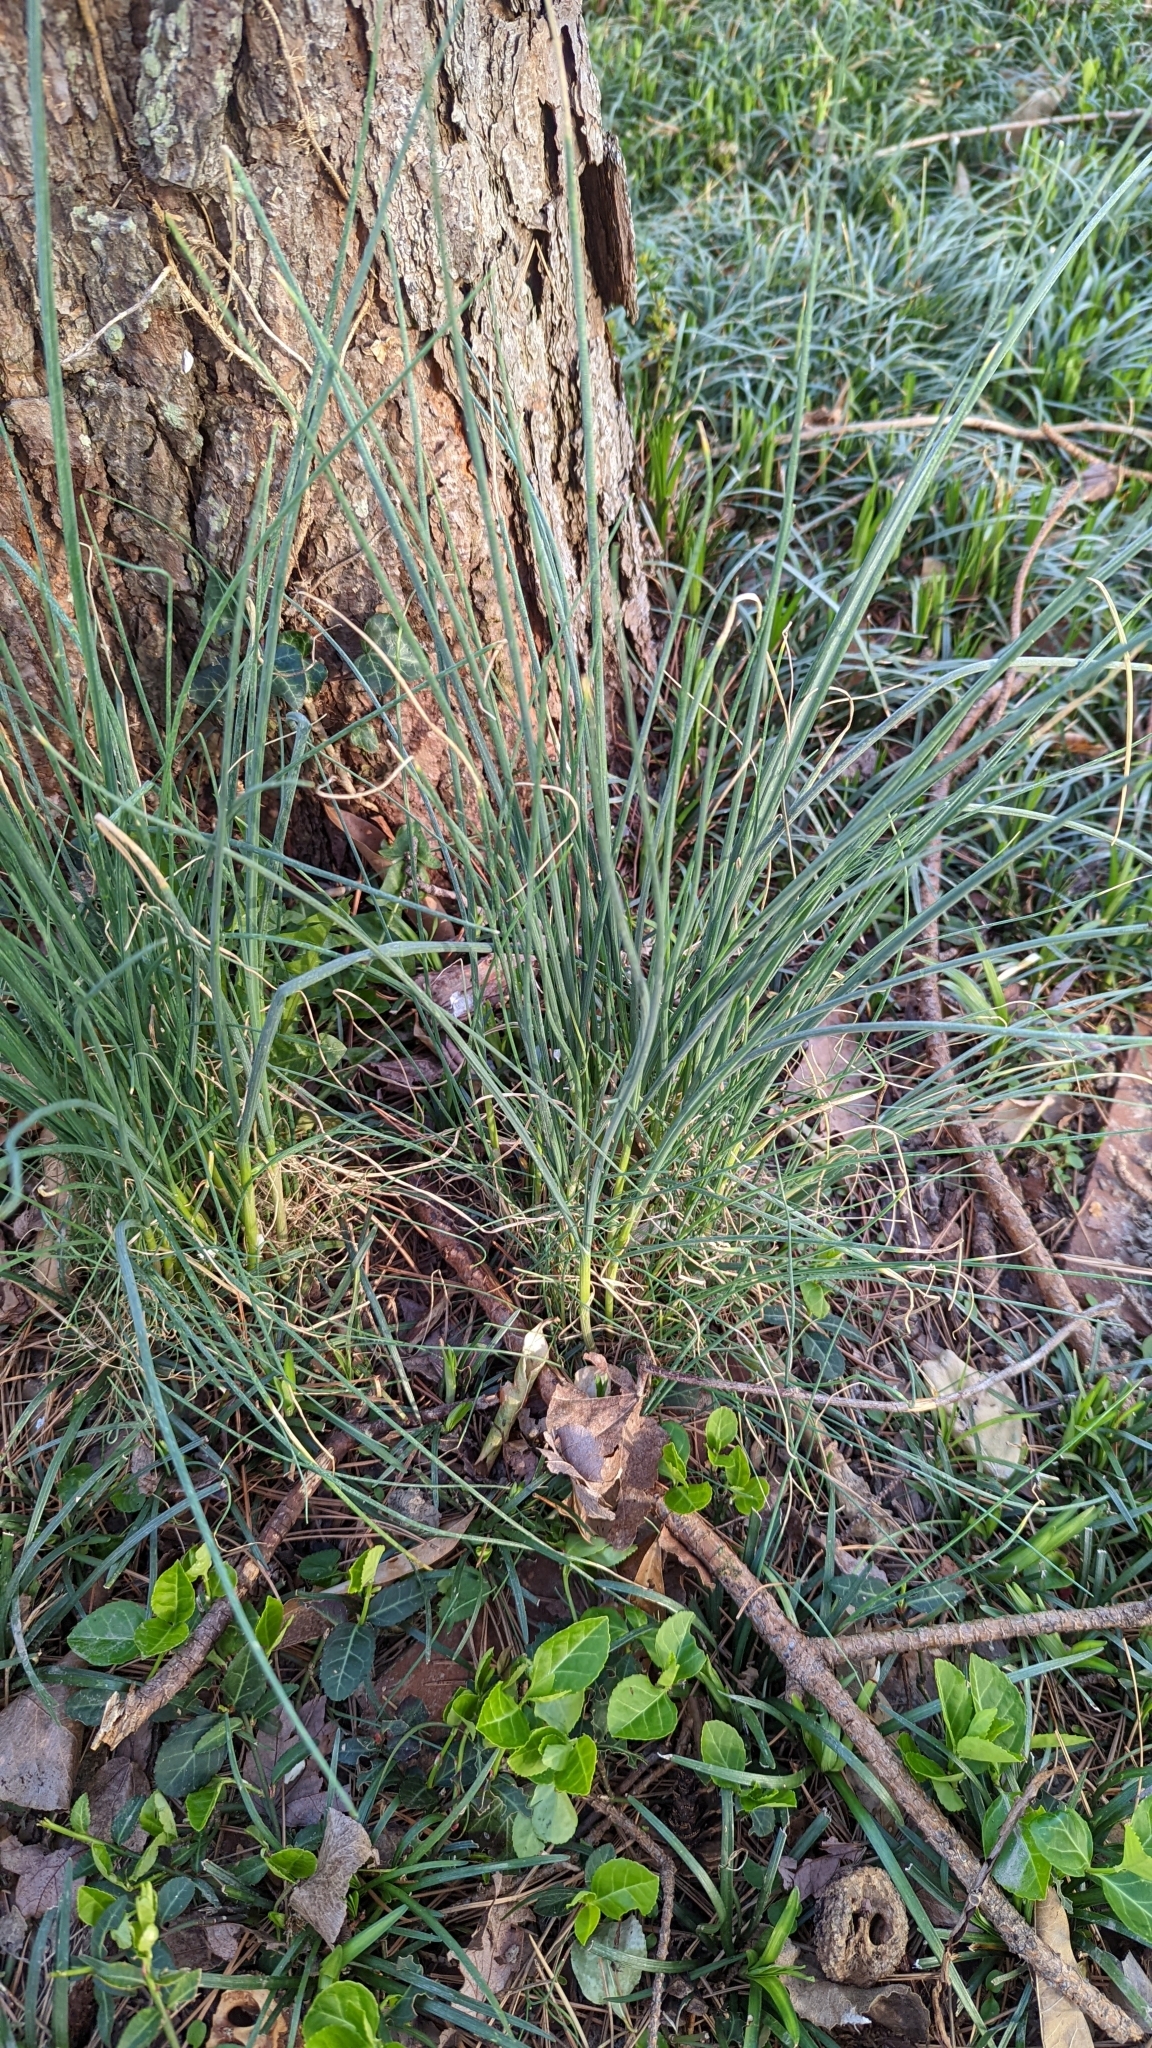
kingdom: Plantae
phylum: Tracheophyta
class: Liliopsida
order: Asparagales
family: Amaryllidaceae
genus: Allium
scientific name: Allium vineale
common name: Crow garlic
